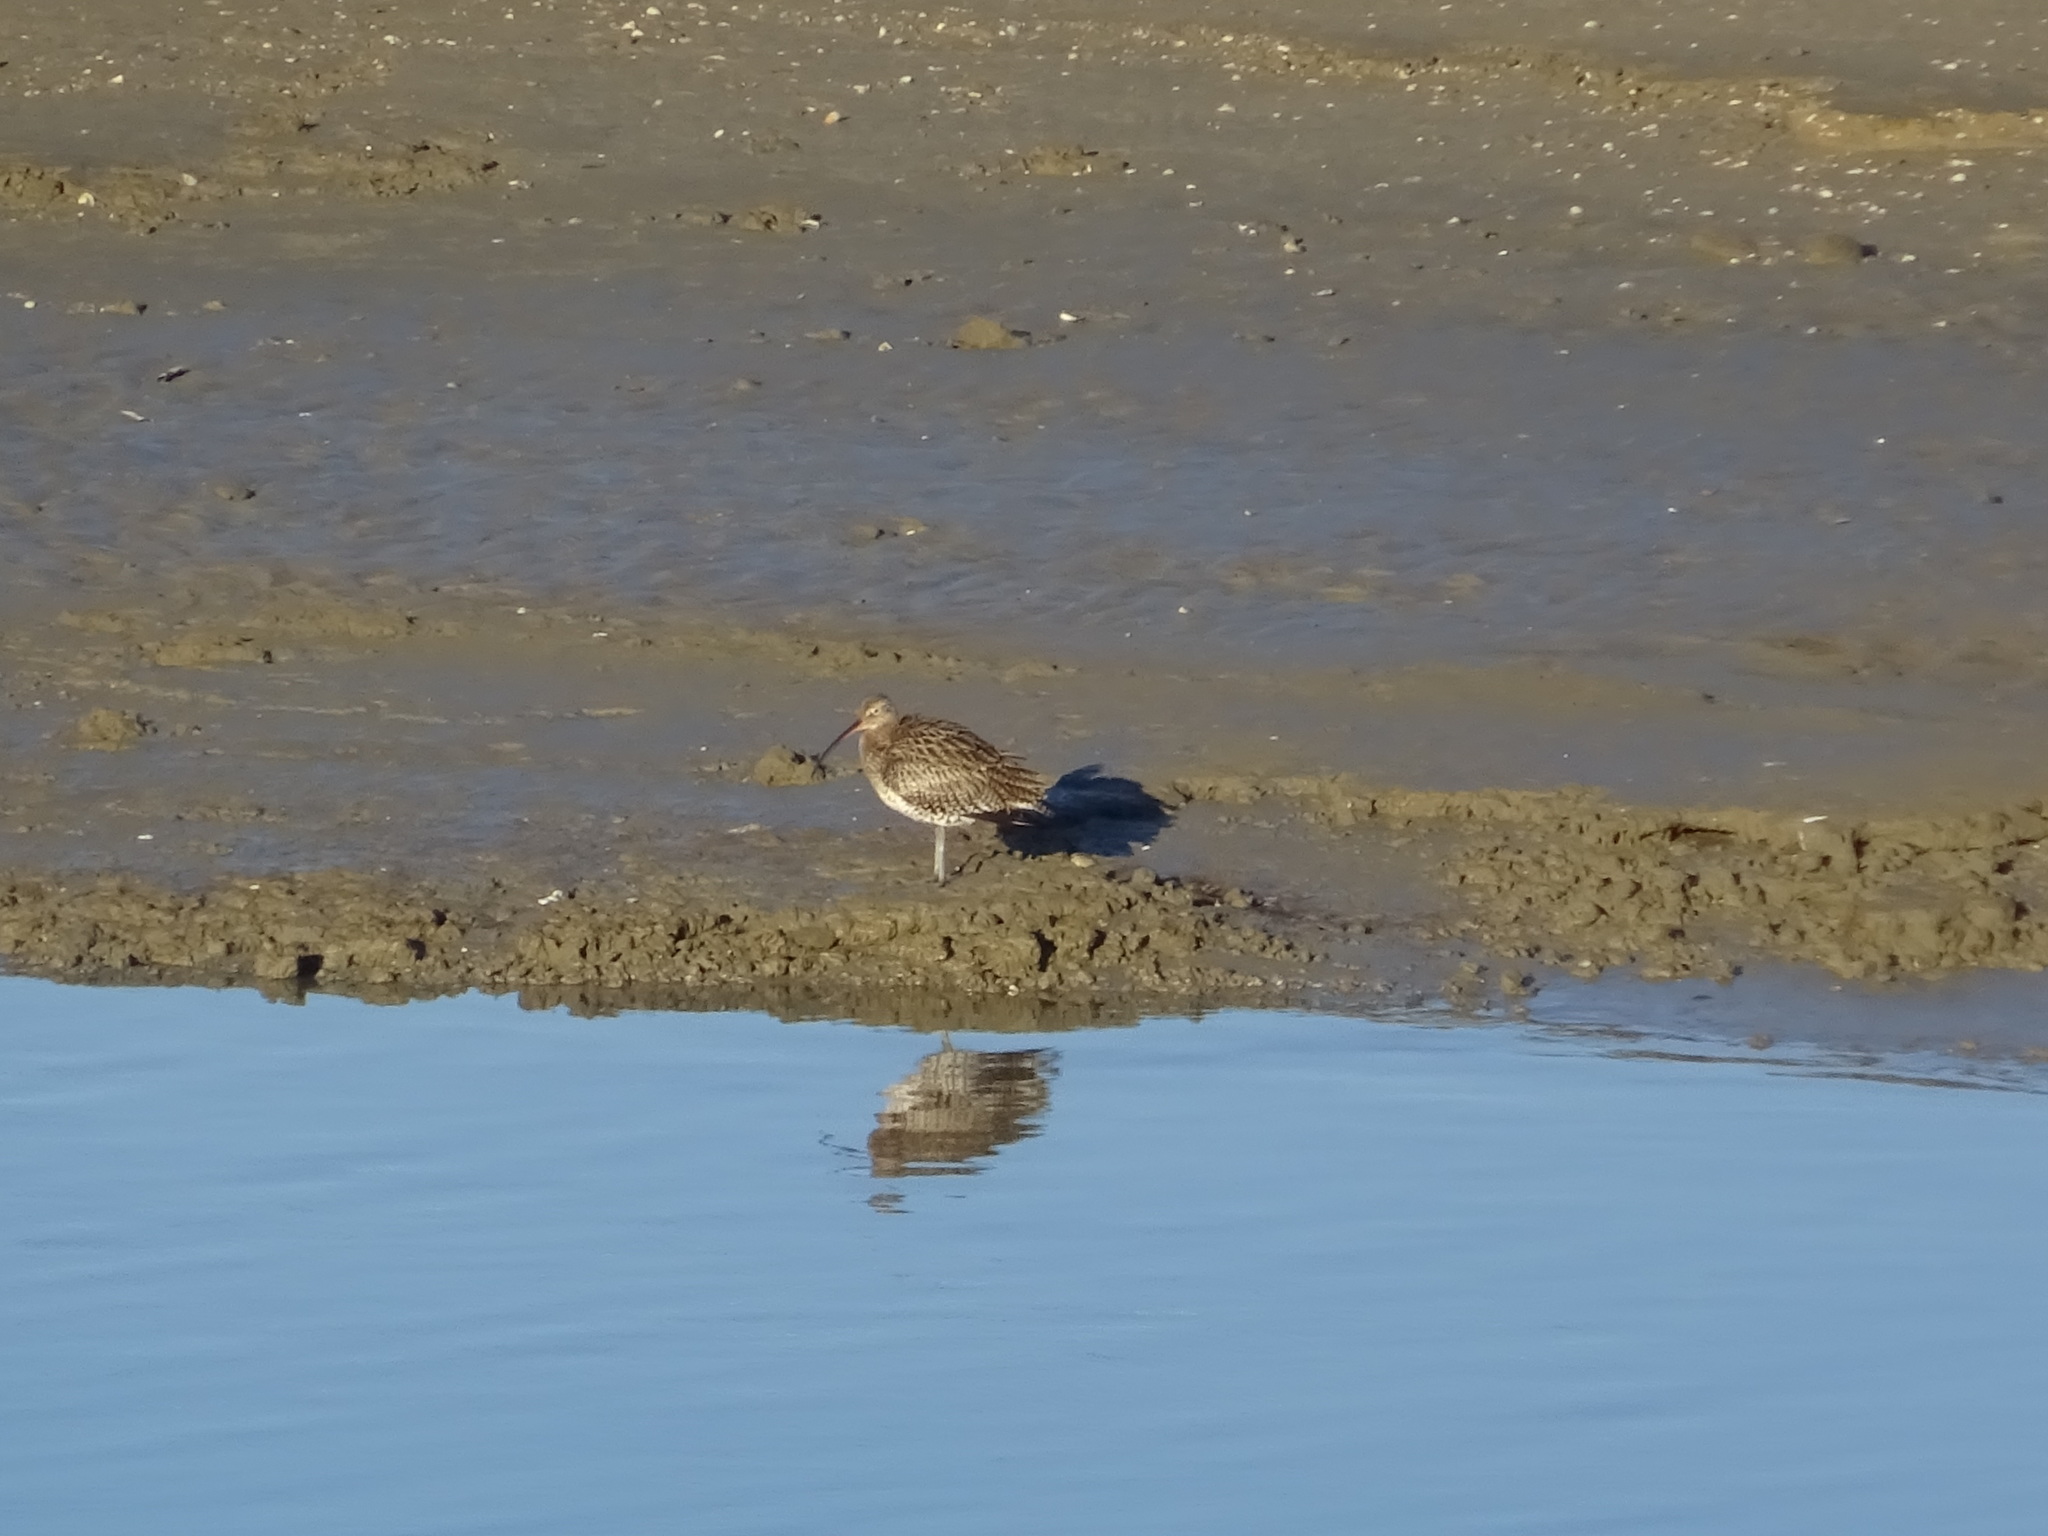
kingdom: Animalia
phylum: Chordata
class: Aves
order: Charadriiformes
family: Scolopacidae
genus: Numenius
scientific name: Numenius arquata
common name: Eurasian curlew
